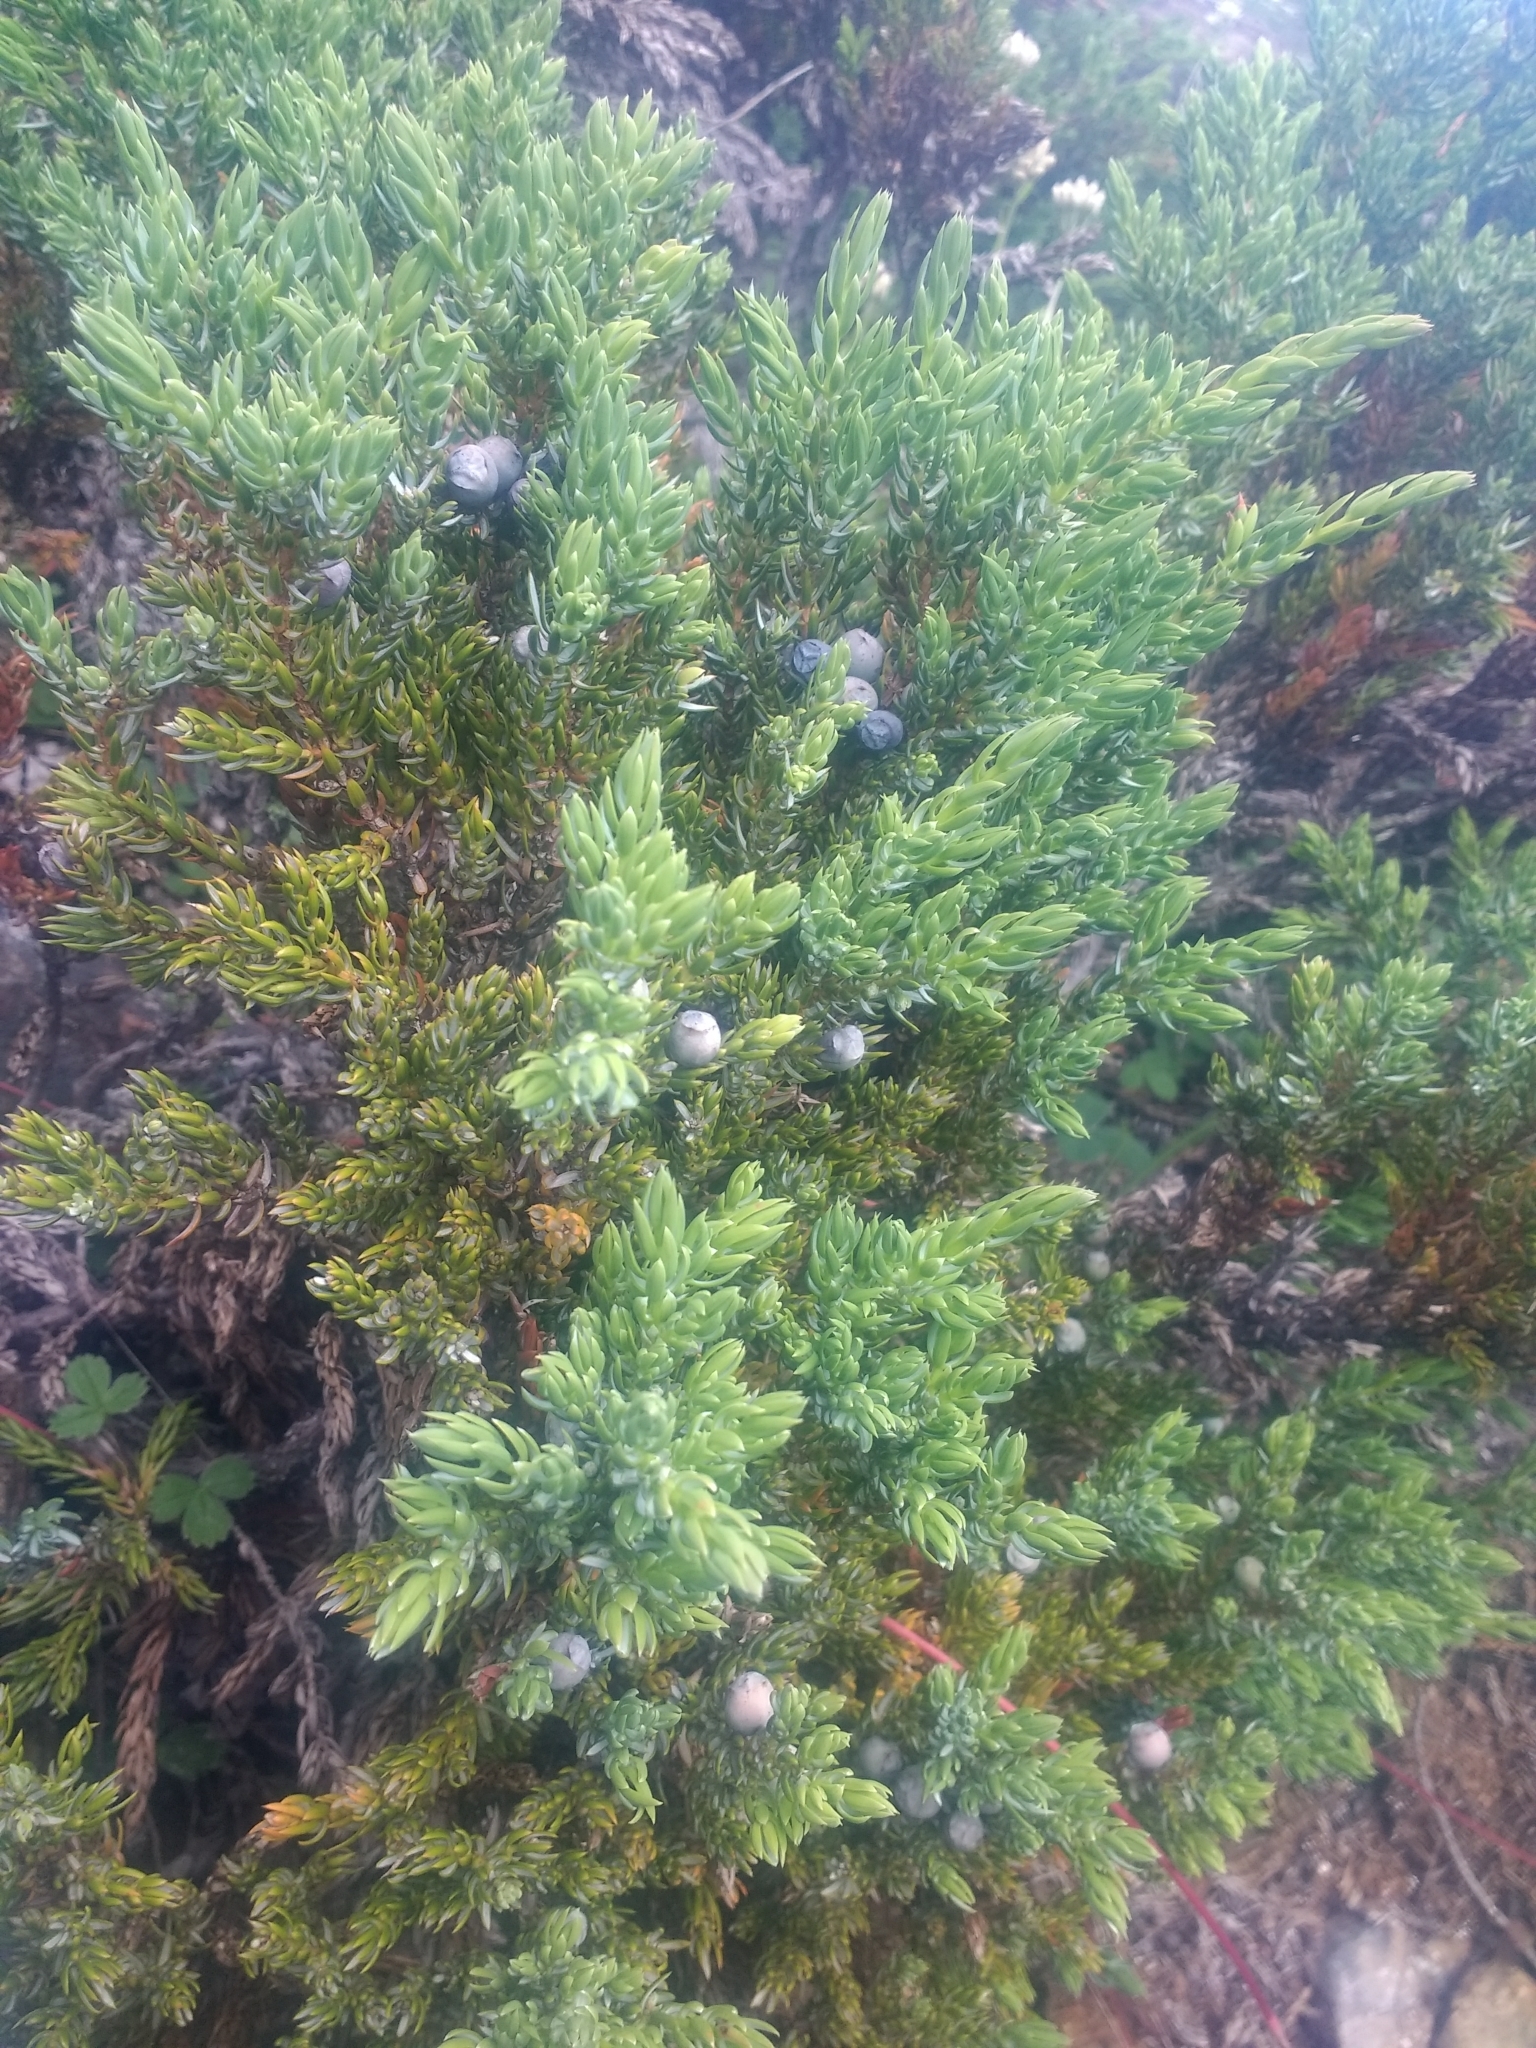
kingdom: Plantae
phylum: Tracheophyta
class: Pinopsida
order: Pinales
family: Cupressaceae
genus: Juniperus
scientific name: Juniperus communis
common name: Common juniper
